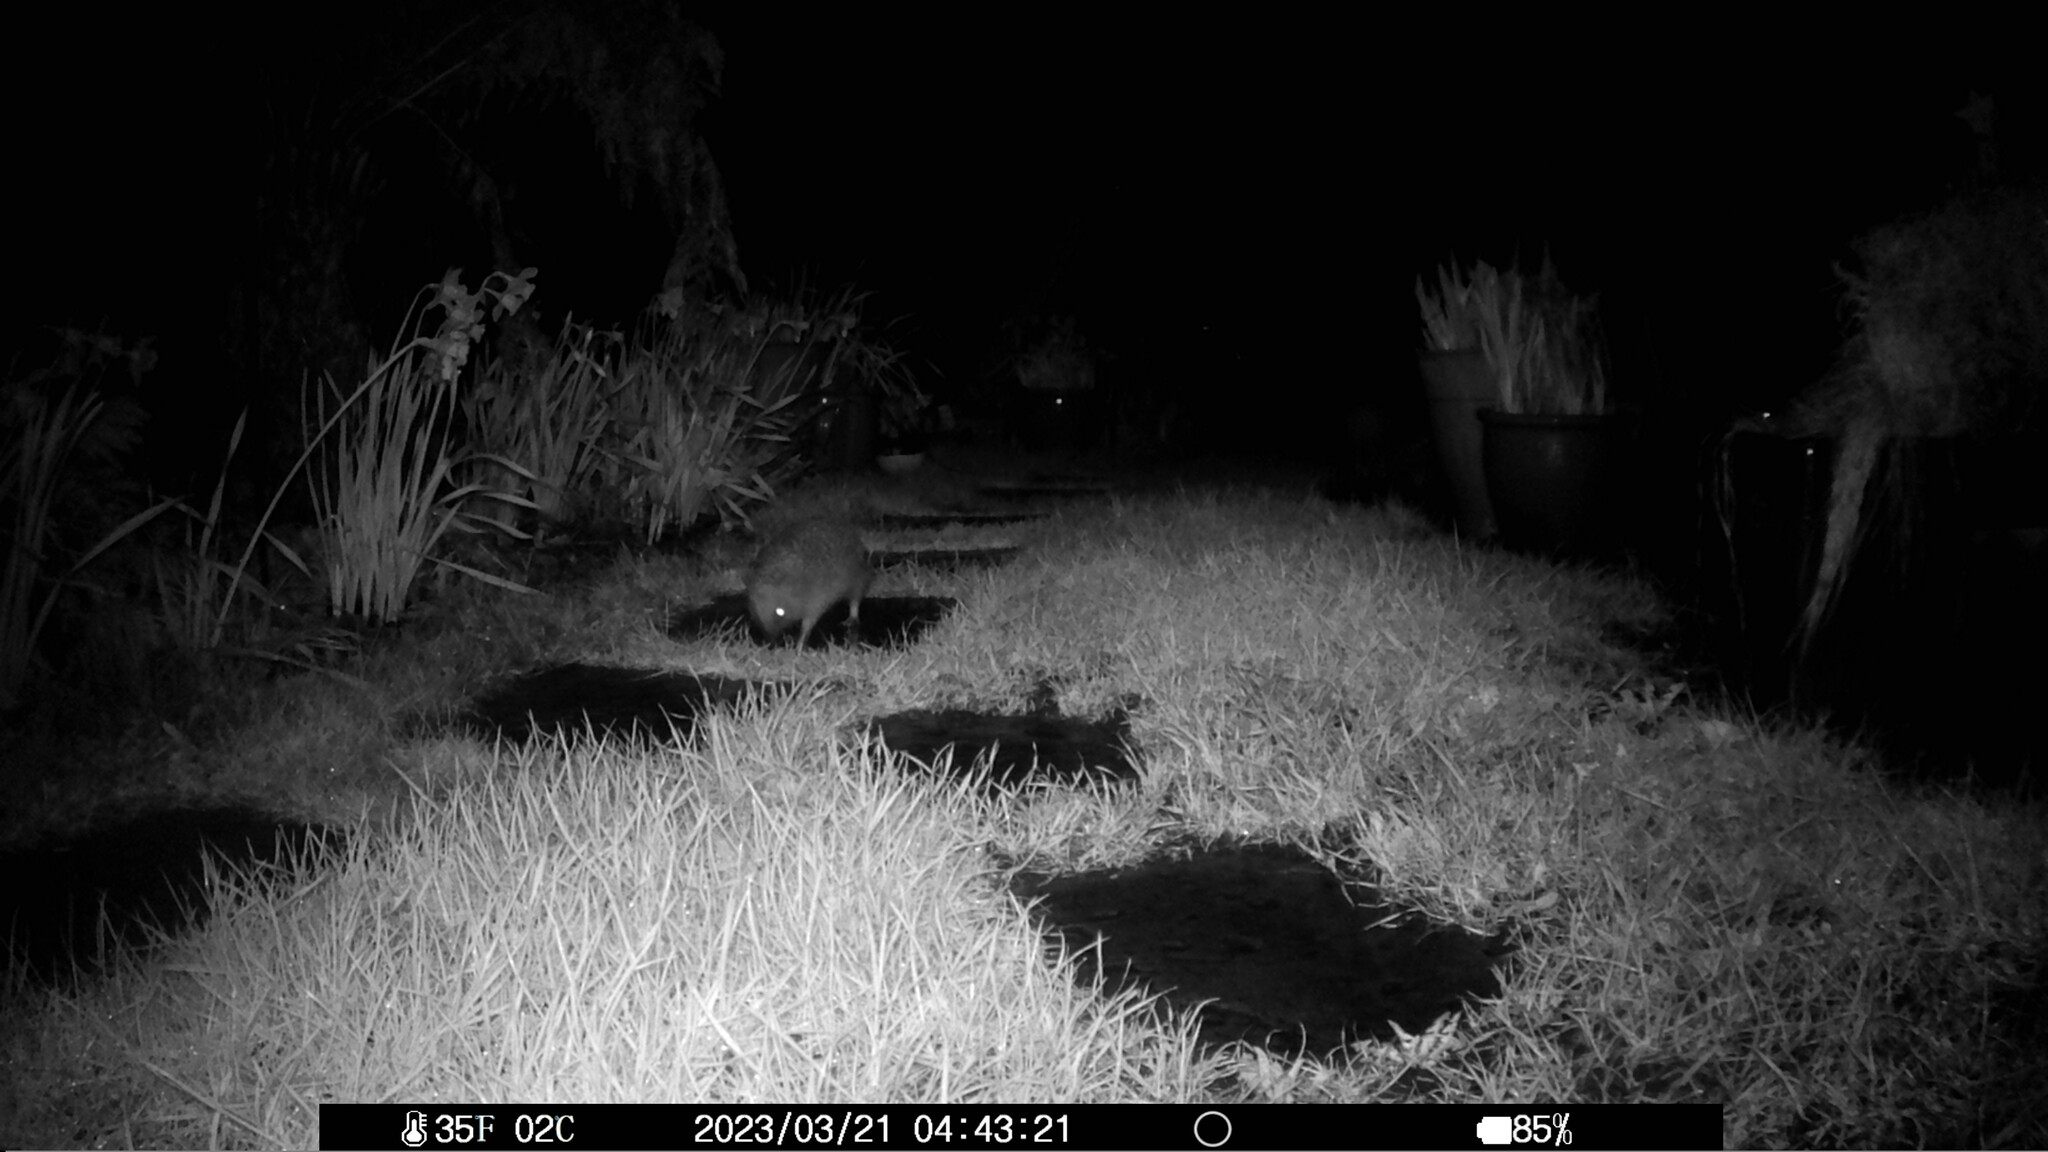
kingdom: Animalia
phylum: Chordata
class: Mammalia
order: Erinaceomorpha
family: Erinaceidae
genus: Erinaceus
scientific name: Erinaceus europaeus
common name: West european hedgehog
